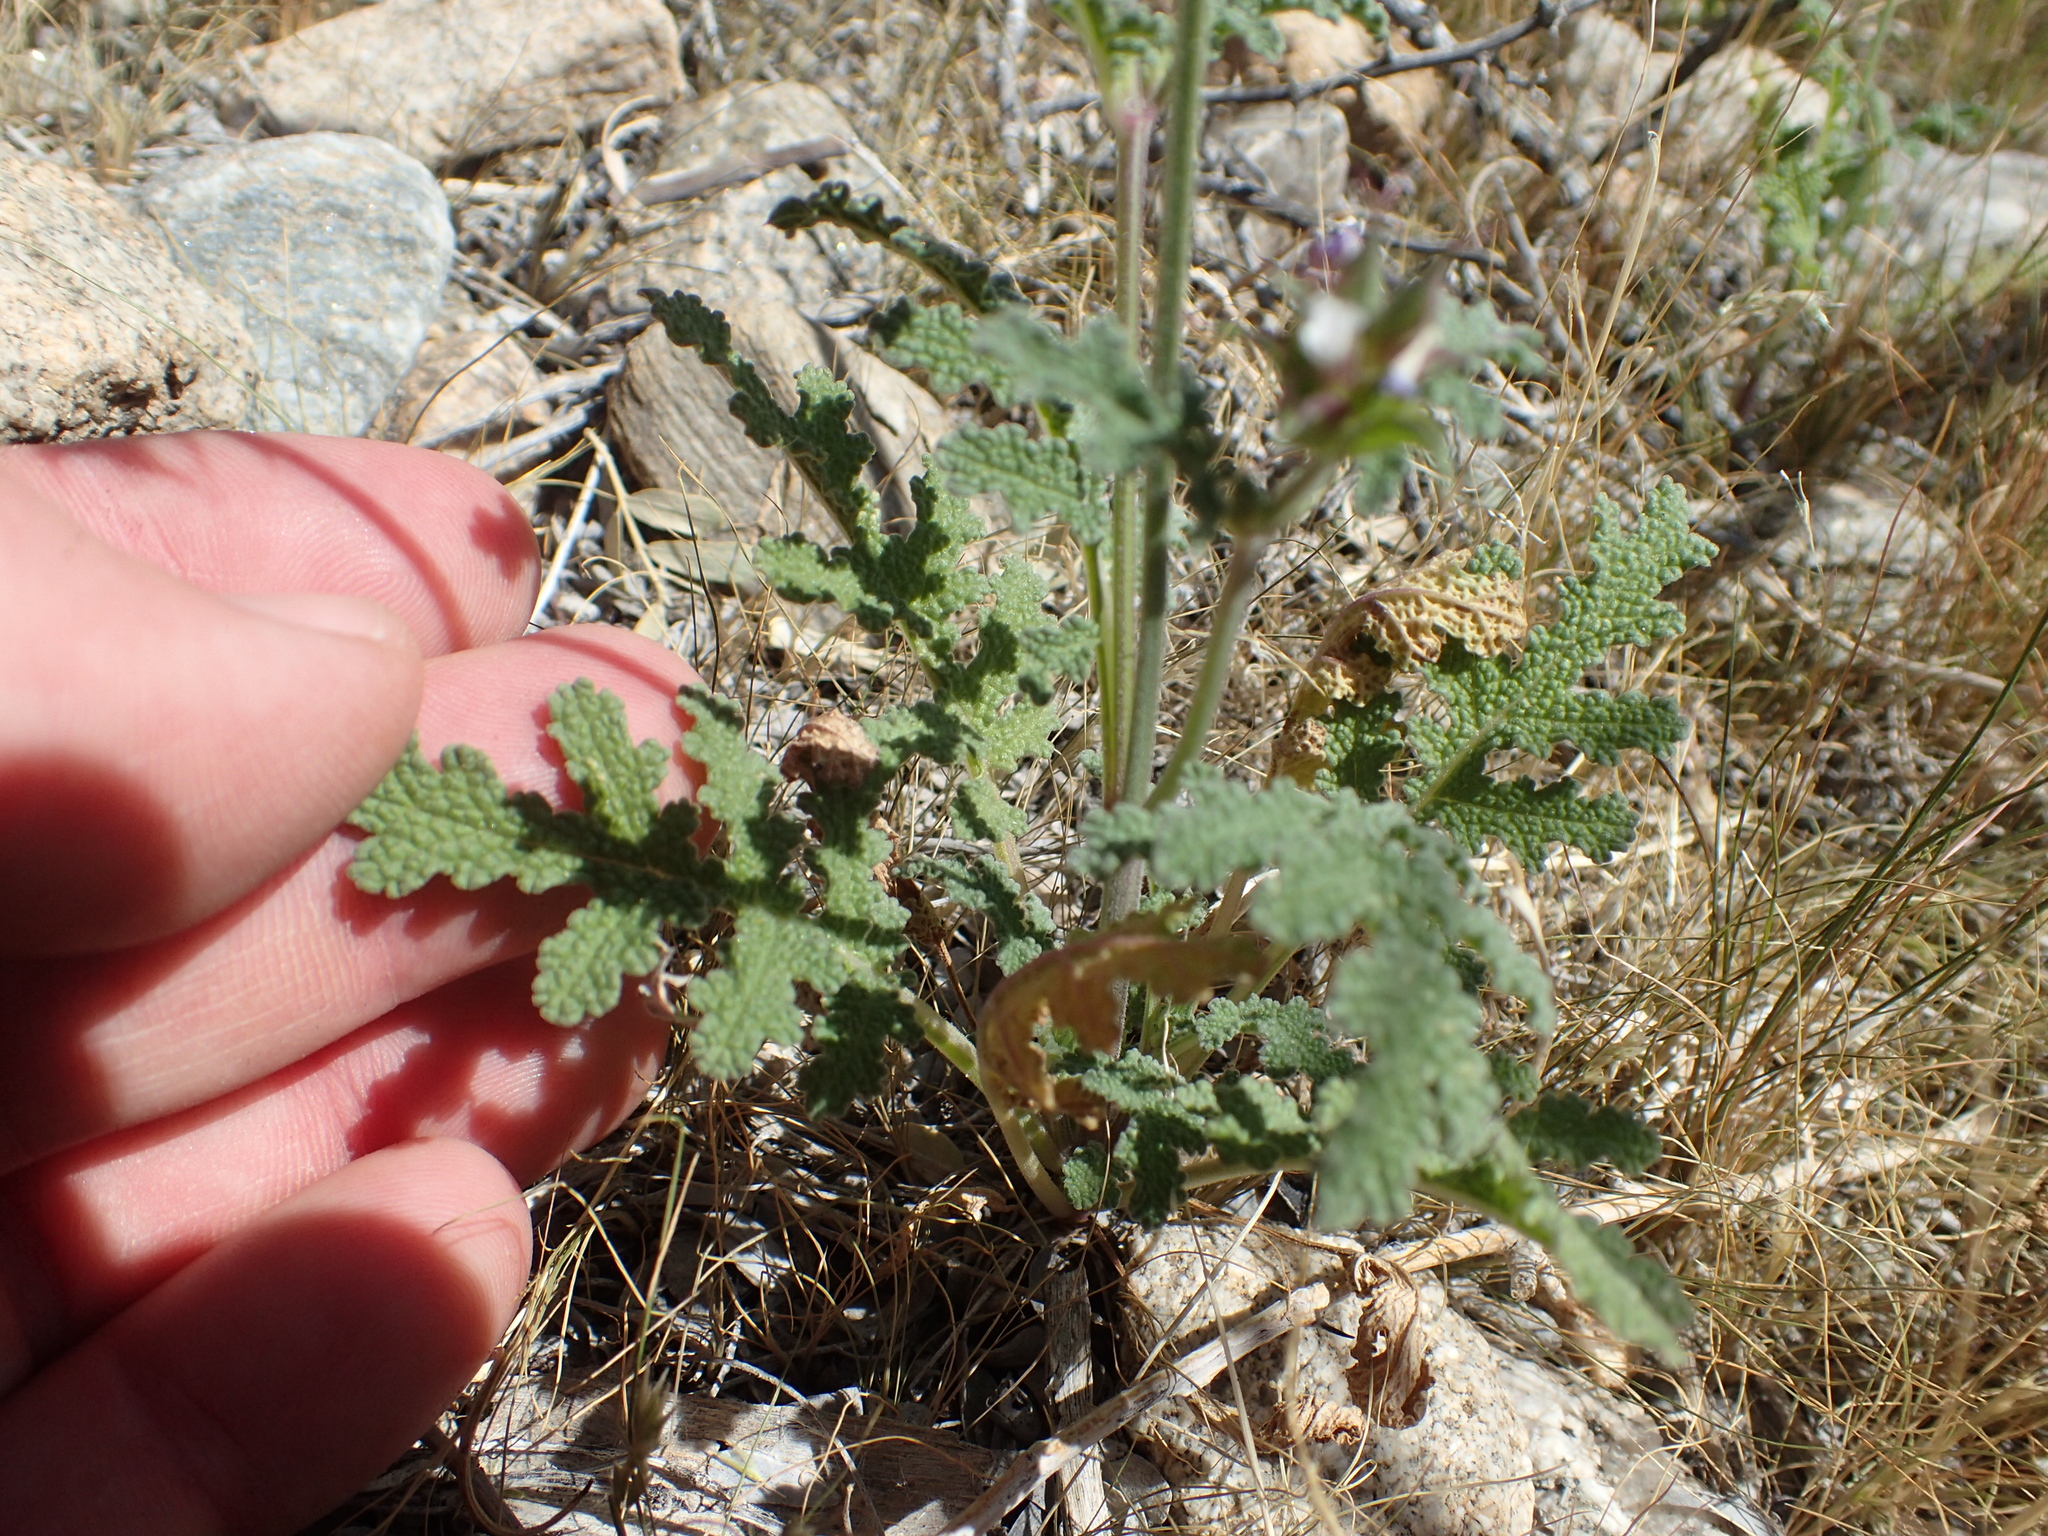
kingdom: Plantae
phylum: Tracheophyta
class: Magnoliopsida
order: Lamiales
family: Lamiaceae
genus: Salvia
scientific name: Salvia columbariae
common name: Chia
